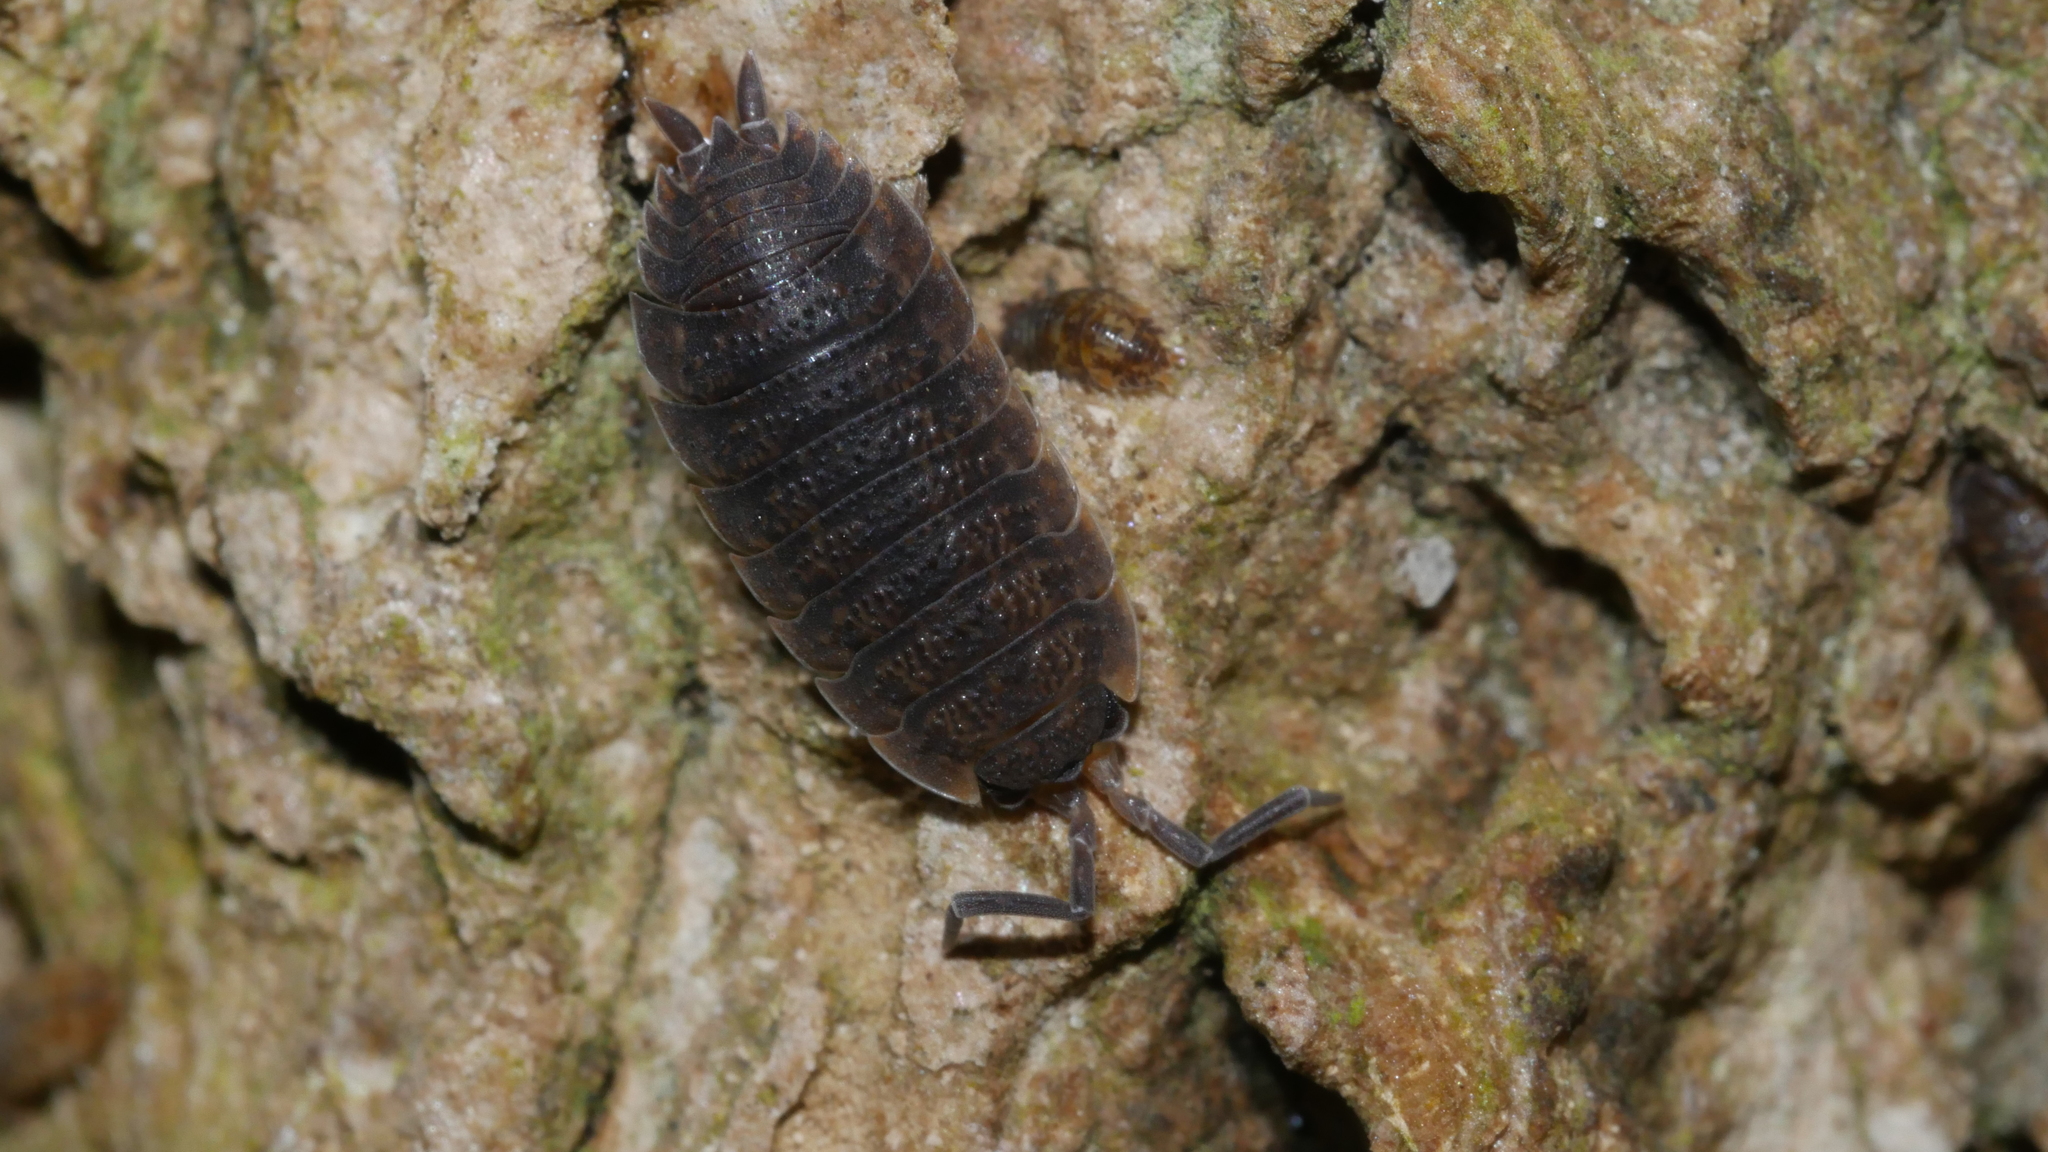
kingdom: Animalia
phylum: Arthropoda
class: Malacostraca
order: Isopoda
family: Porcellionidae
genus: Porcellio
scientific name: Porcellio scaber
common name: Common rough woodlouse
